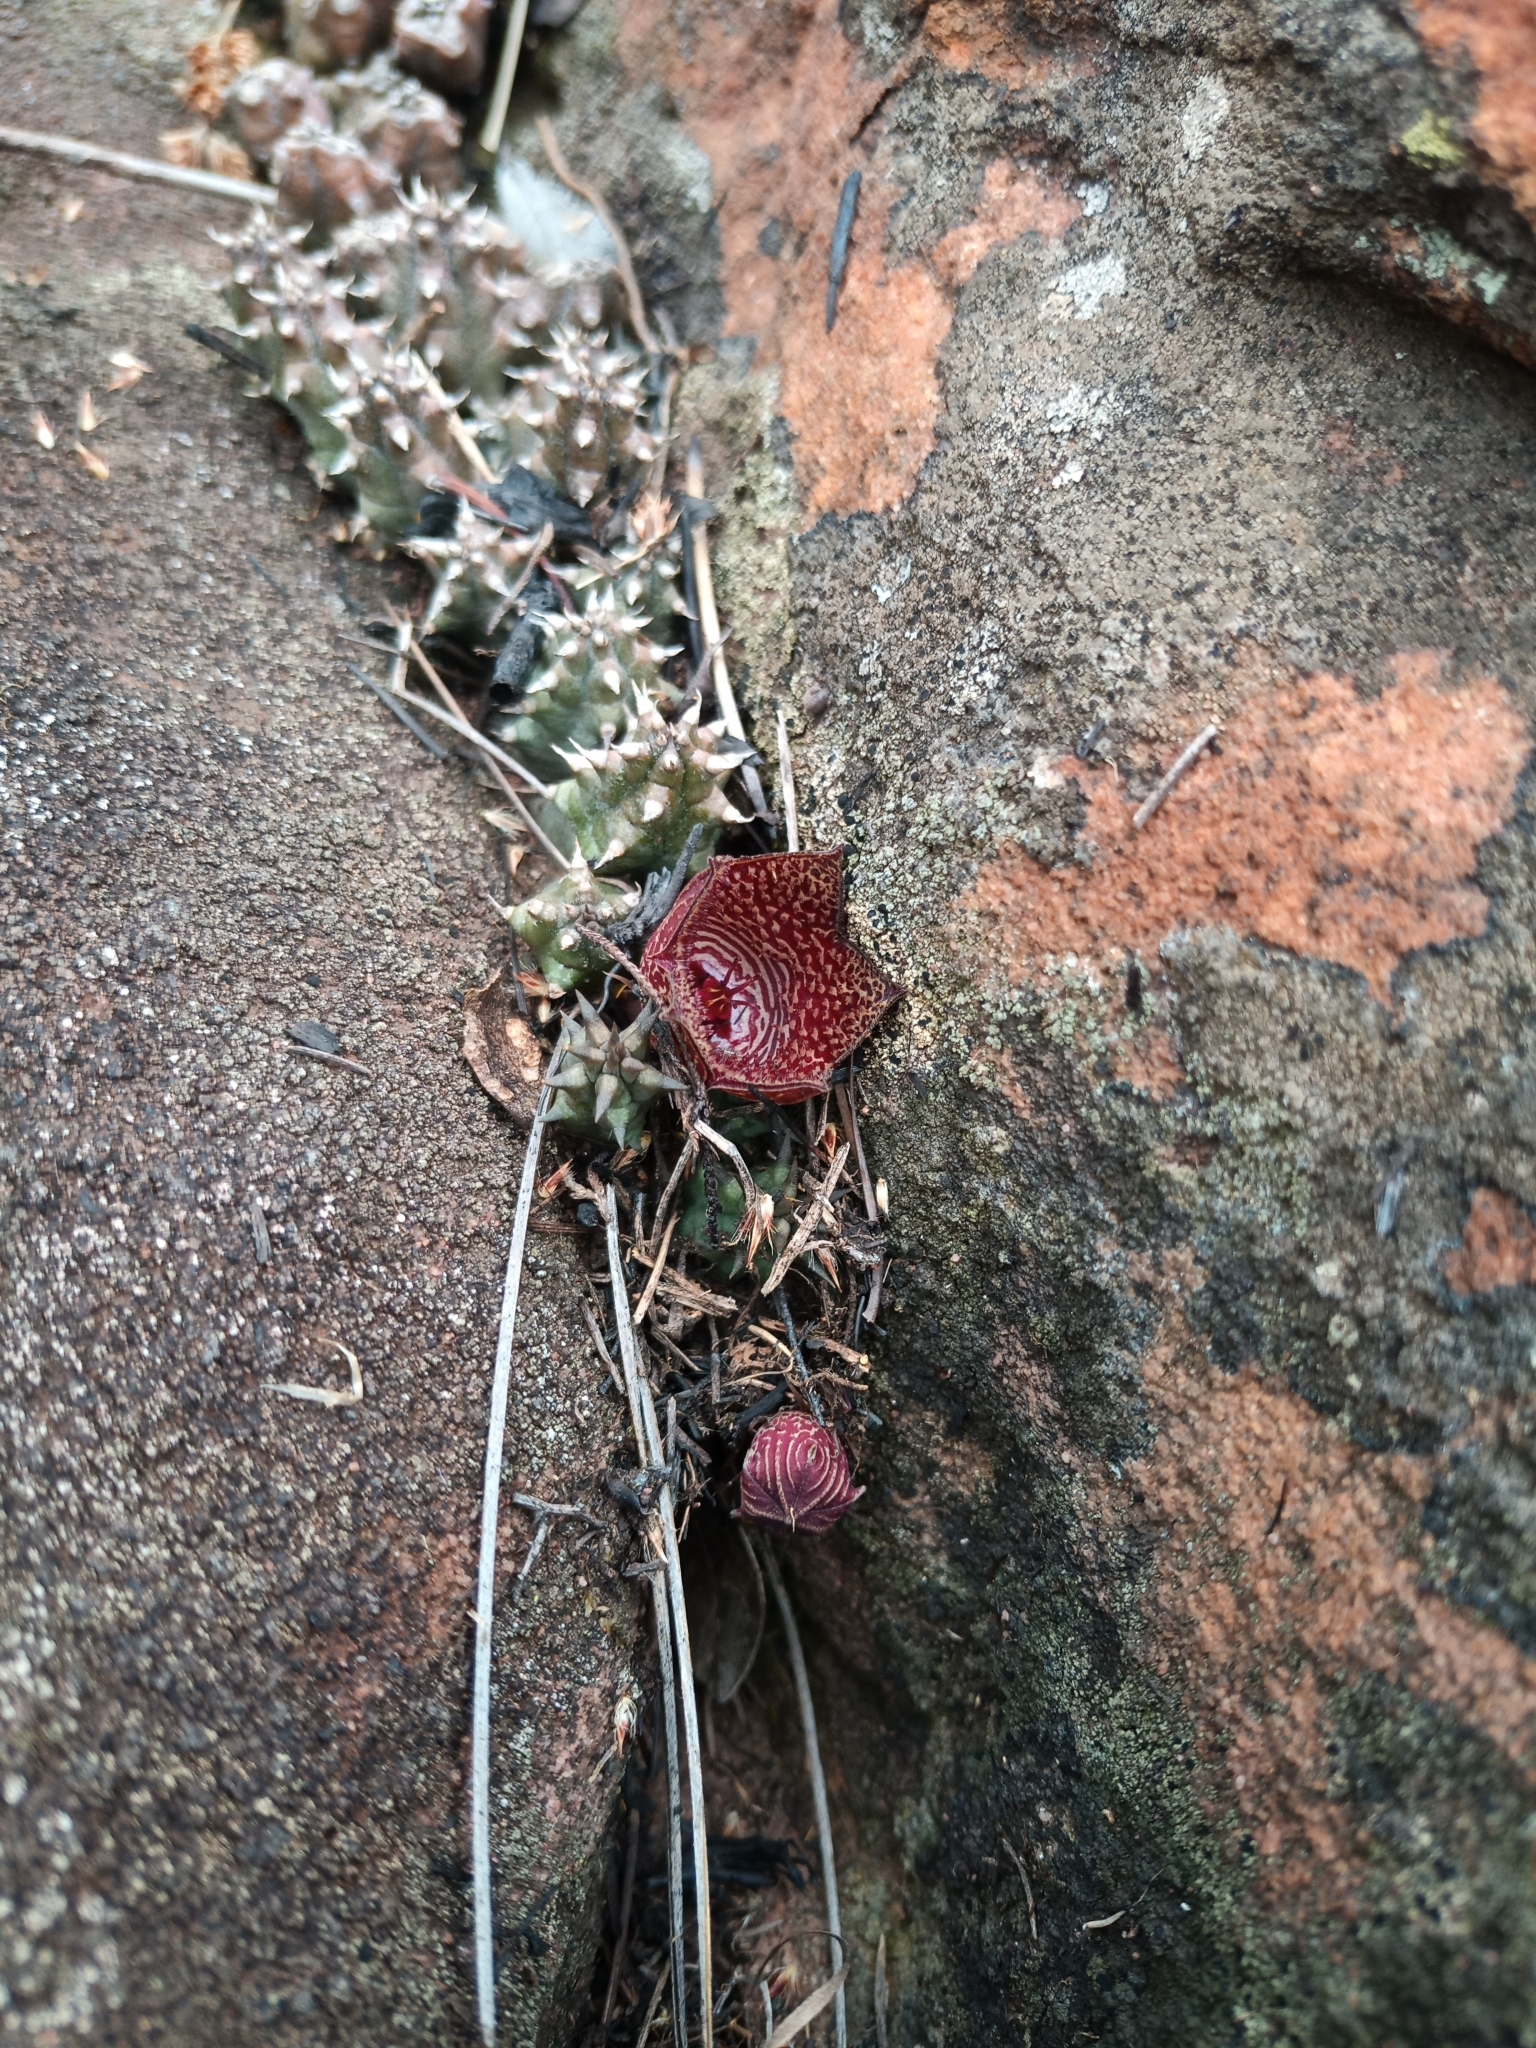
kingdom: Plantae
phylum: Tracheophyta
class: Magnoliopsida
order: Gentianales
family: Apocynaceae
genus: Ceropegia
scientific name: Ceropegia whitesloaneana
